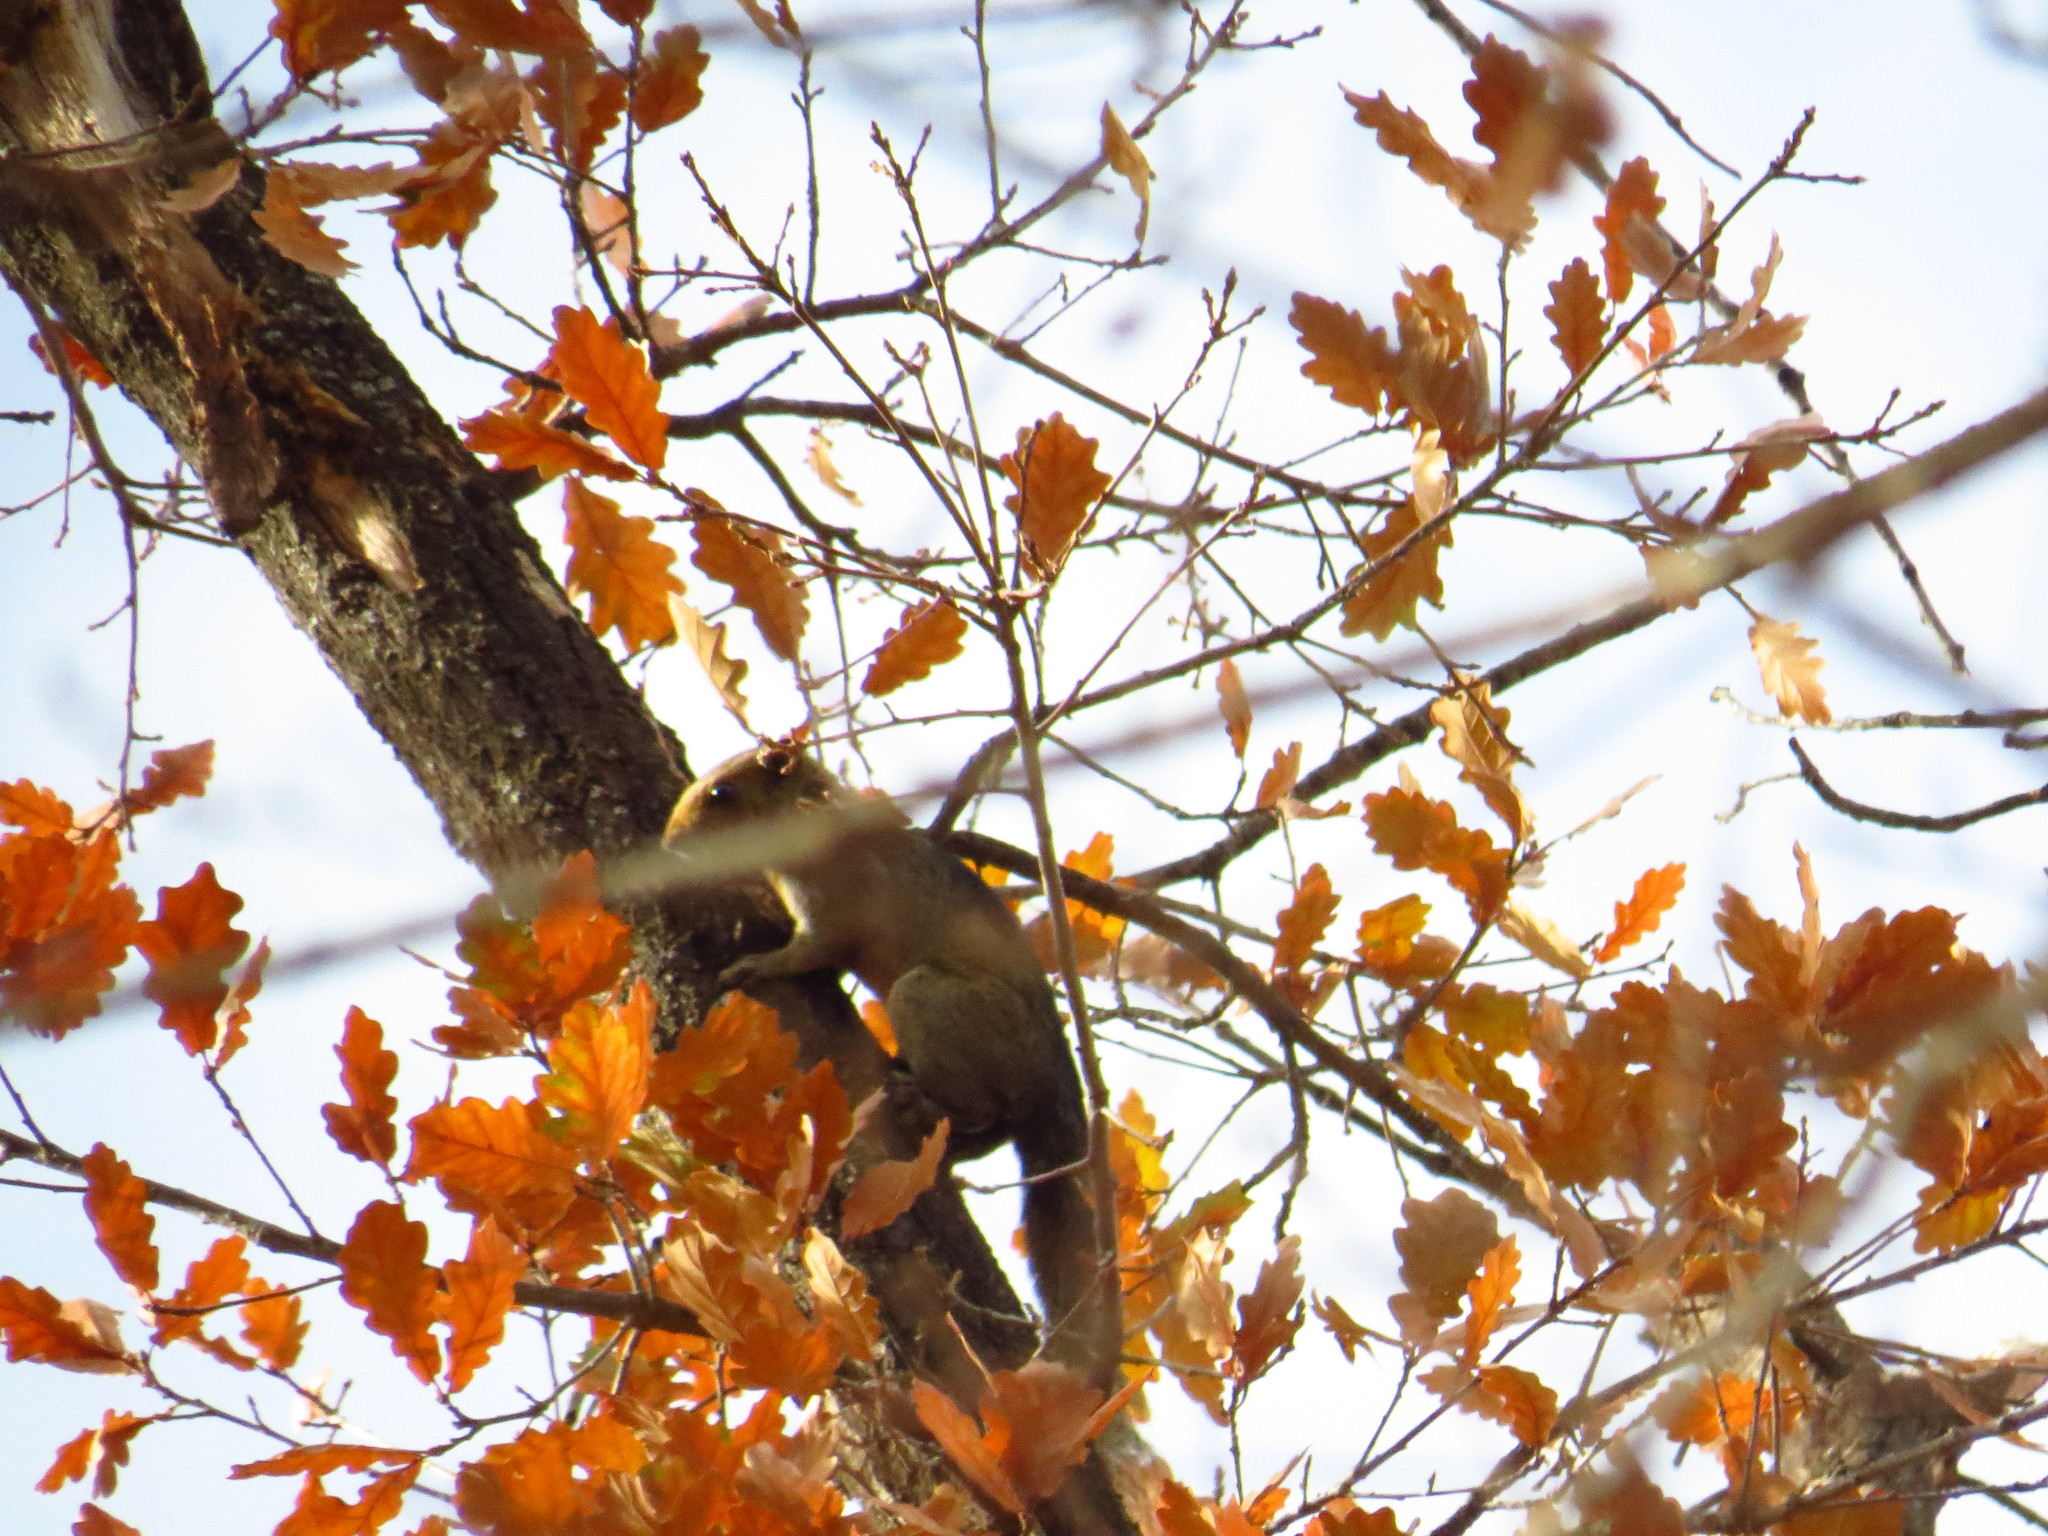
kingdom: Animalia
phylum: Chordata
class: Mammalia
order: Rodentia
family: Sciuridae
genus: Callosciurus
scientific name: Callosciurus erythraeus
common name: Pallas's squirrel
